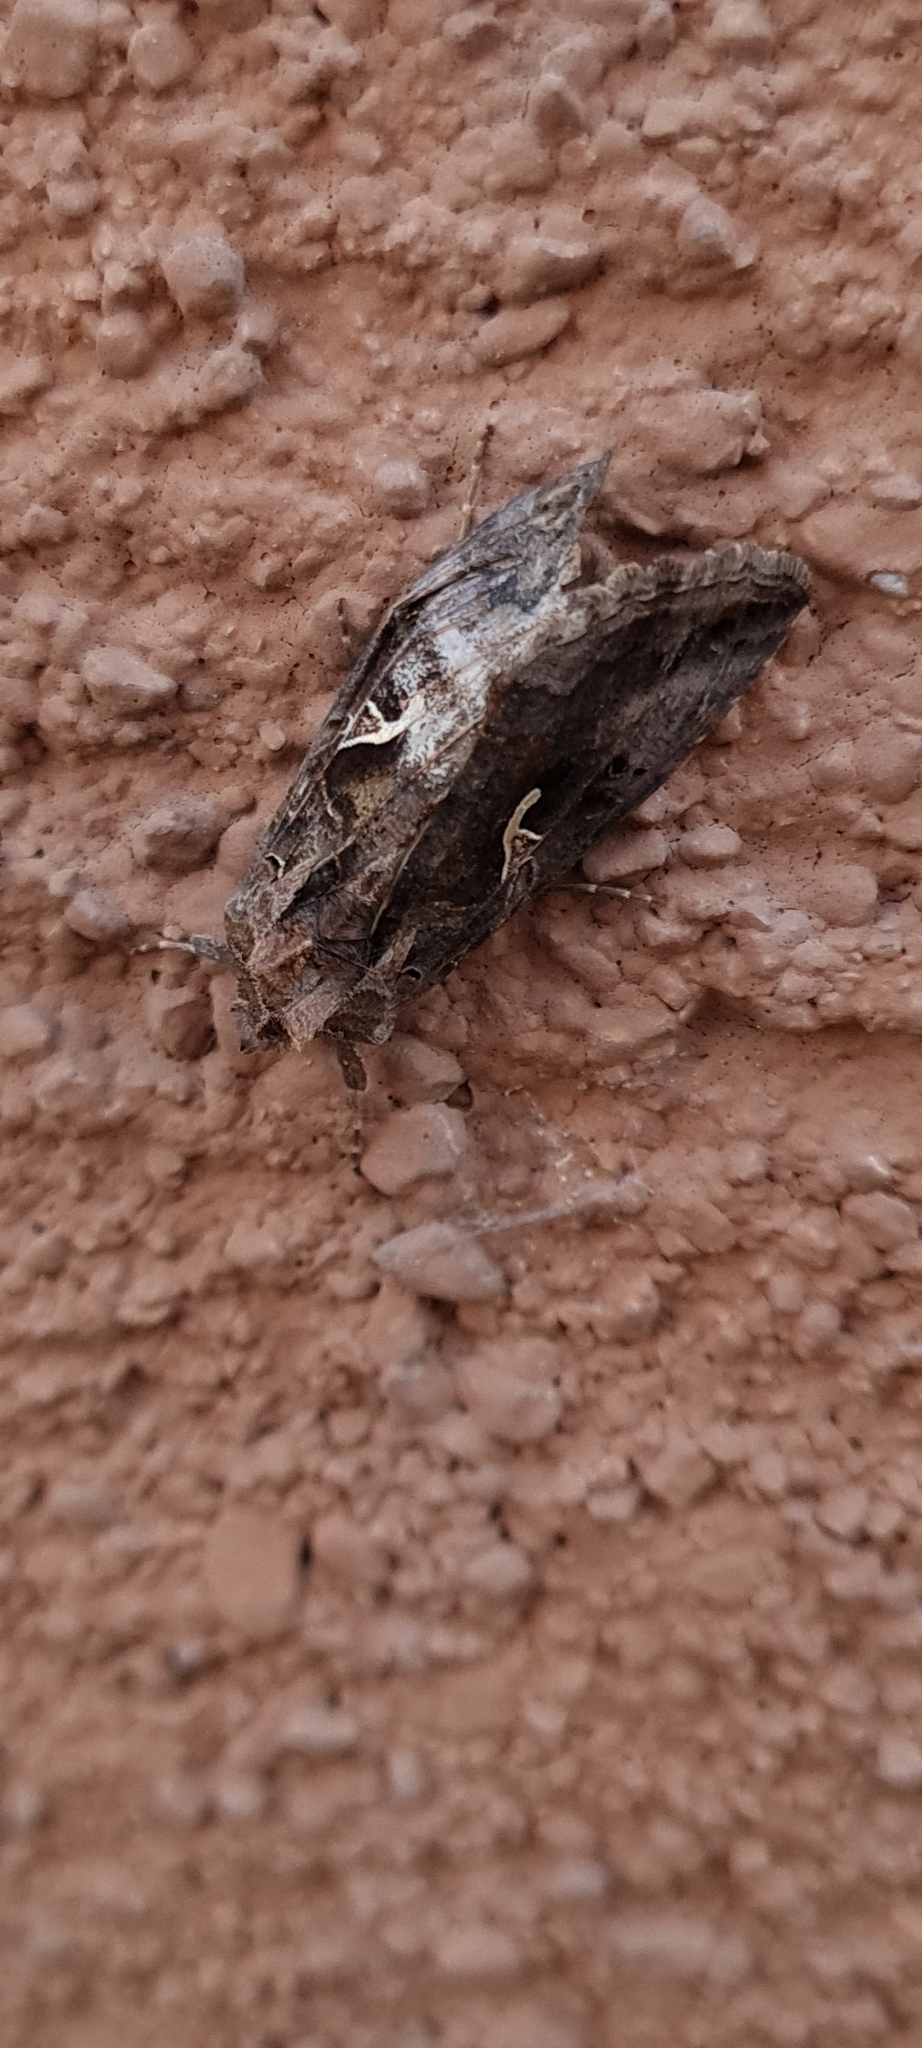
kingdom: Animalia
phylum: Arthropoda
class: Insecta
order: Lepidoptera
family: Noctuidae
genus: Autographa
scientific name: Autographa gamma
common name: Silver y
